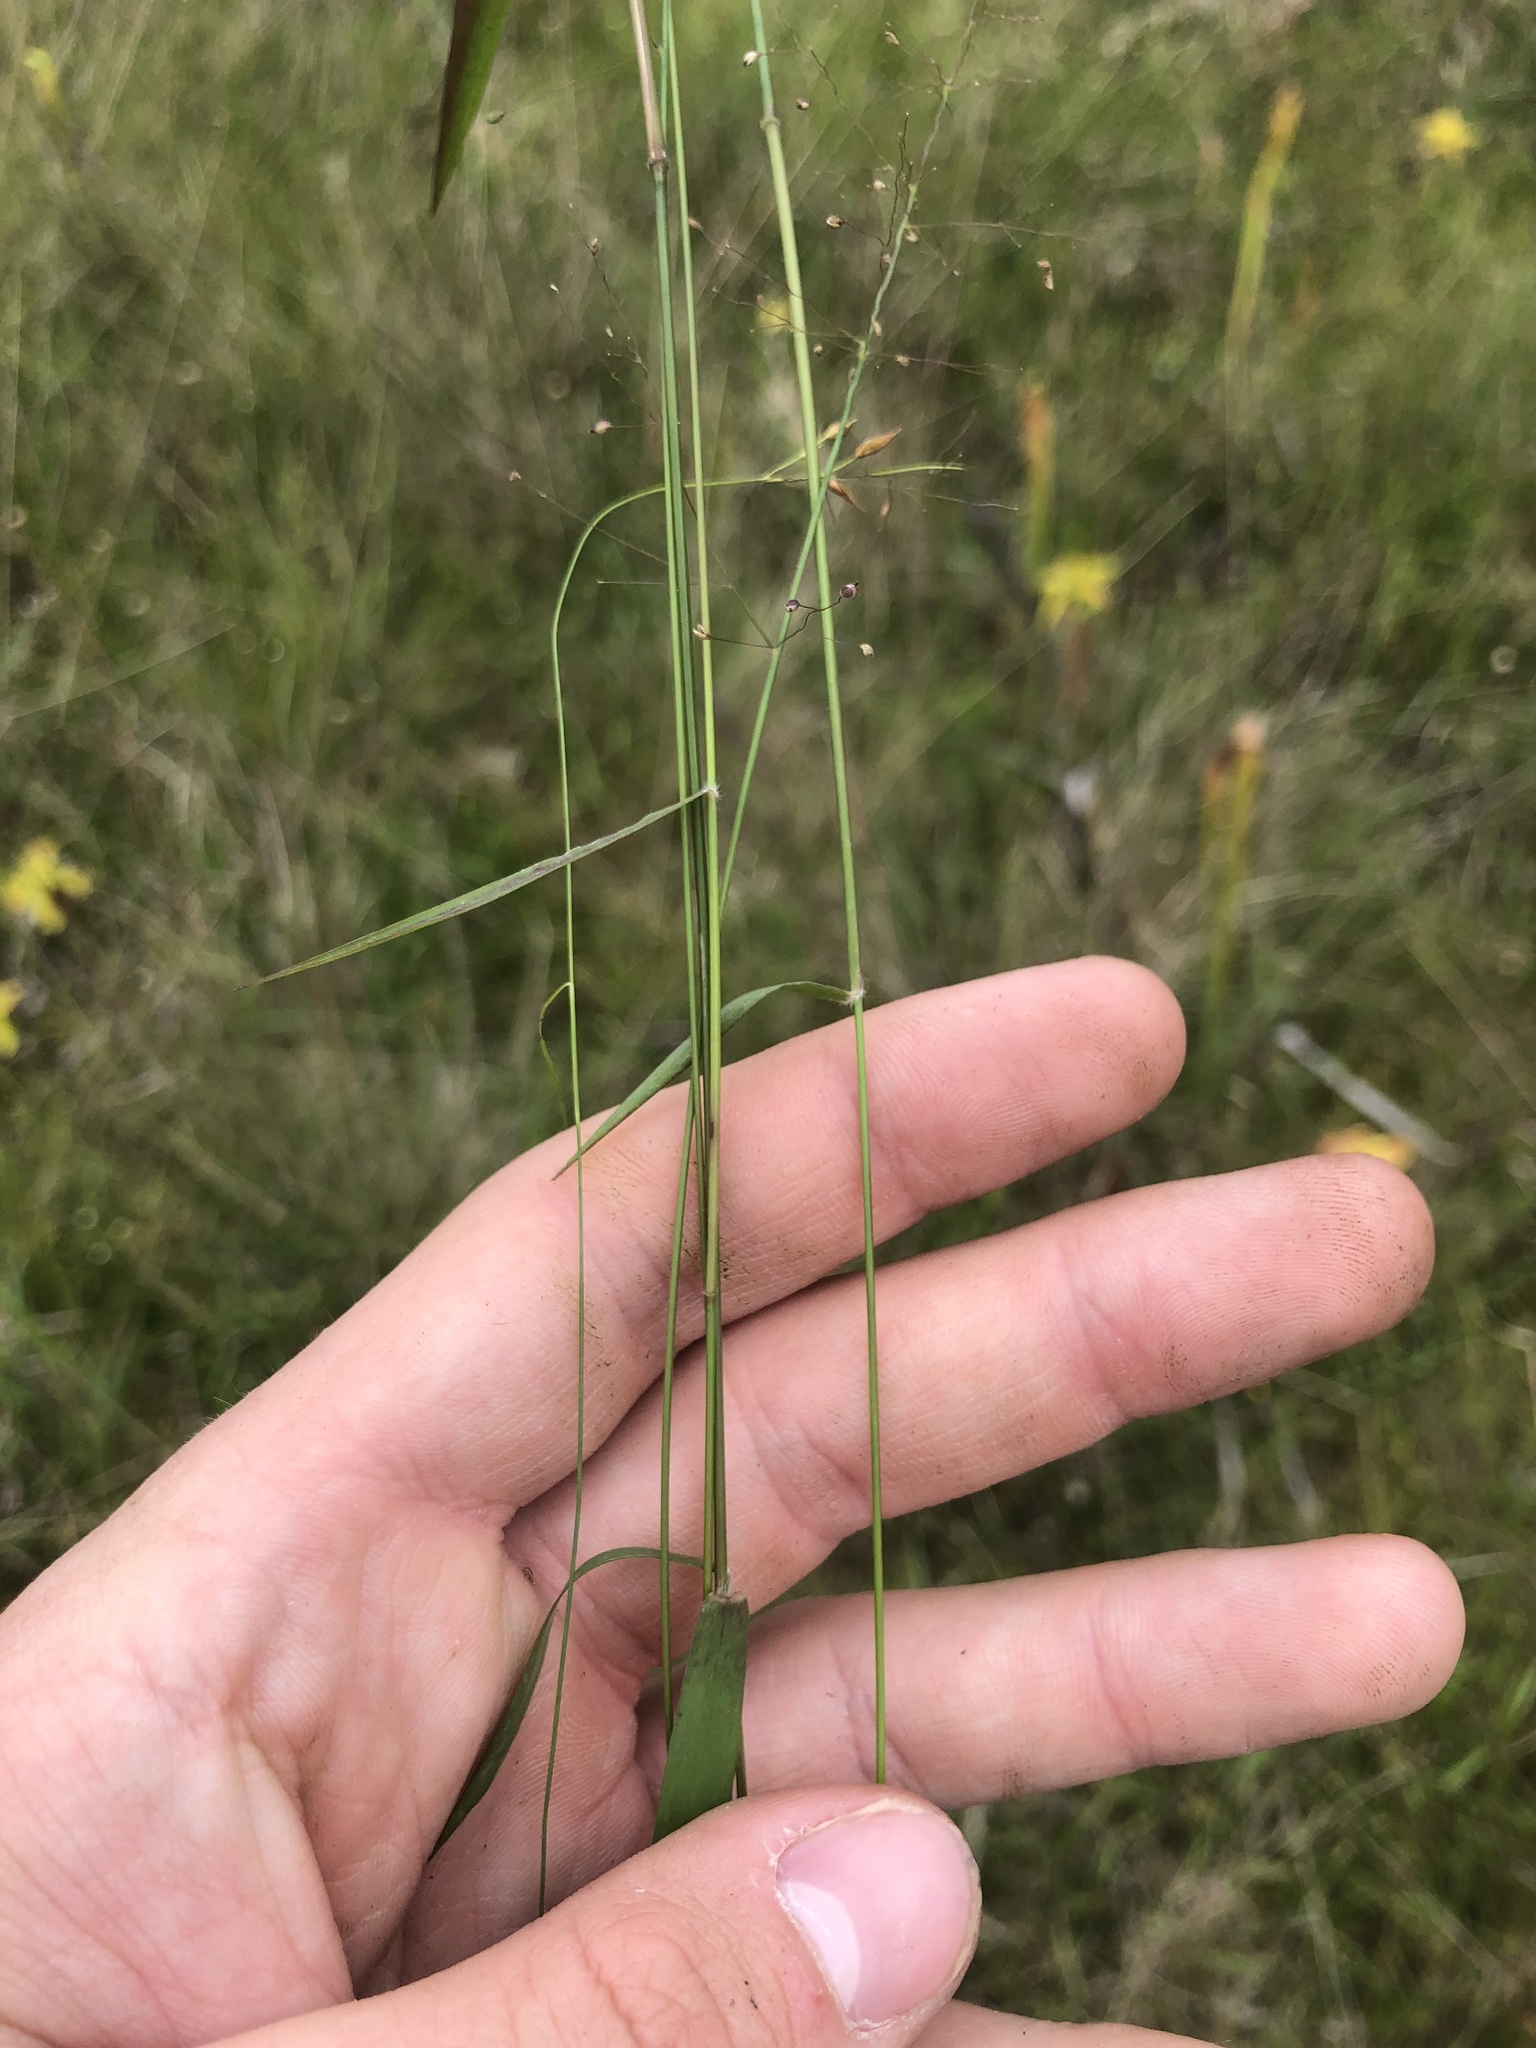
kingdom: Plantae
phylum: Tracheophyta
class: Liliopsida
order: Poales
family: Poaceae
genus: Dichanthelium
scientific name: Dichanthelium longiligulatum
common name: Long-ligule panicgrass
